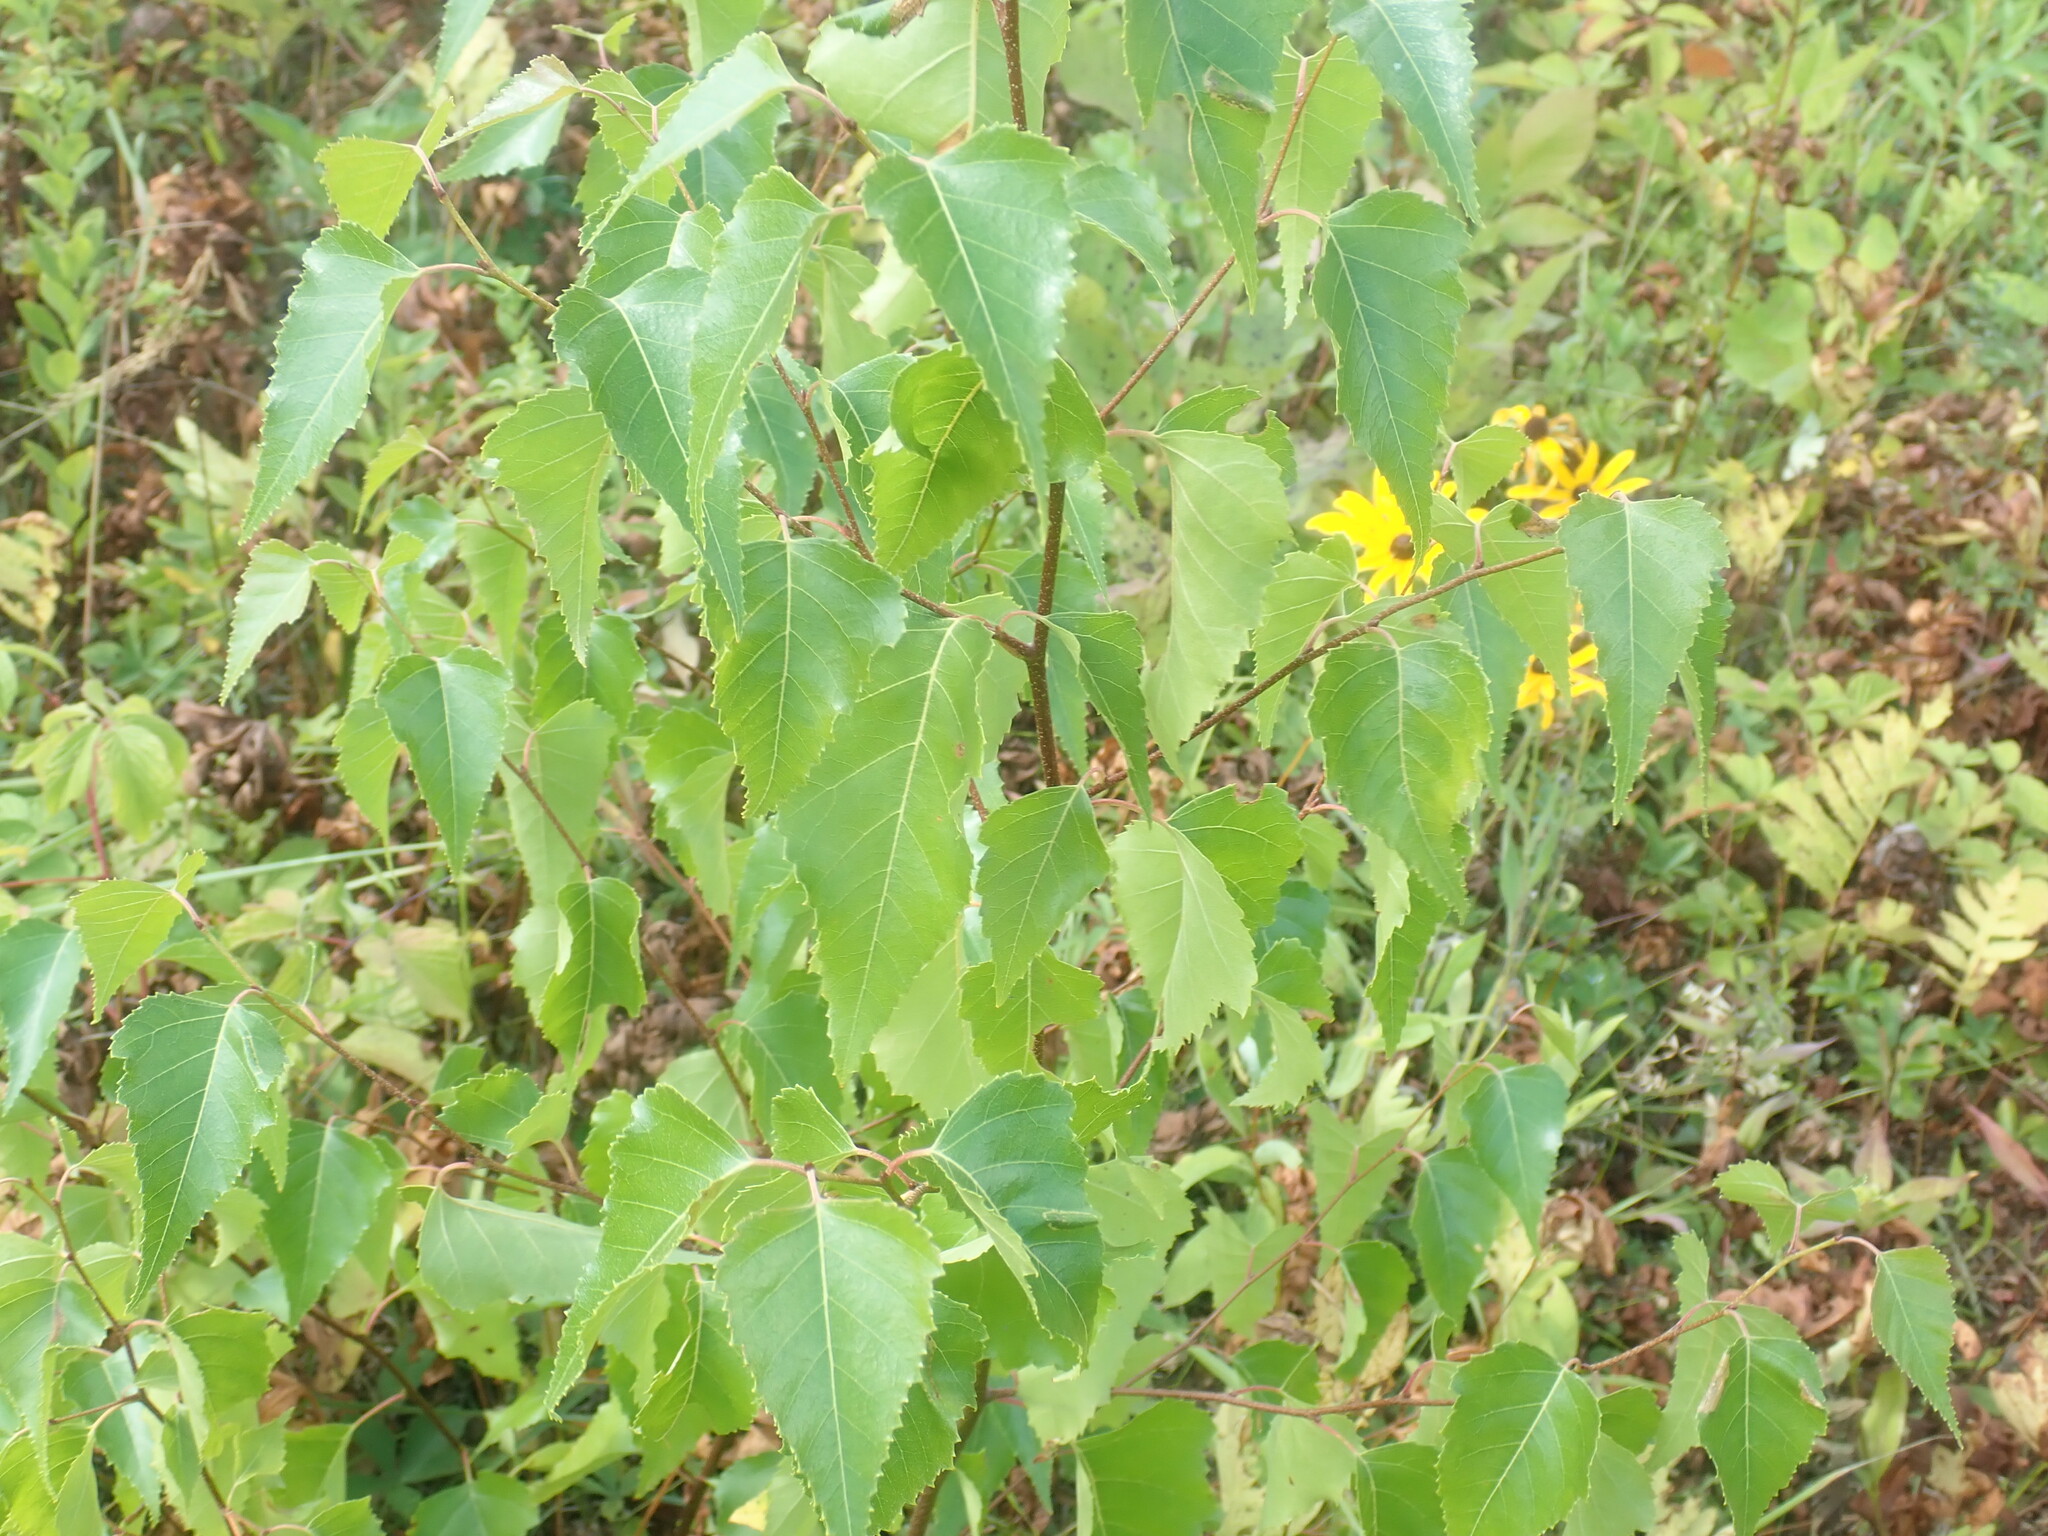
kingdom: Plantae
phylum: Tracheophyta
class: Magnoliopsida
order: Fagales
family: Betulaceae
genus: Betula
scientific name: Betula populifolia
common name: Fire birch
